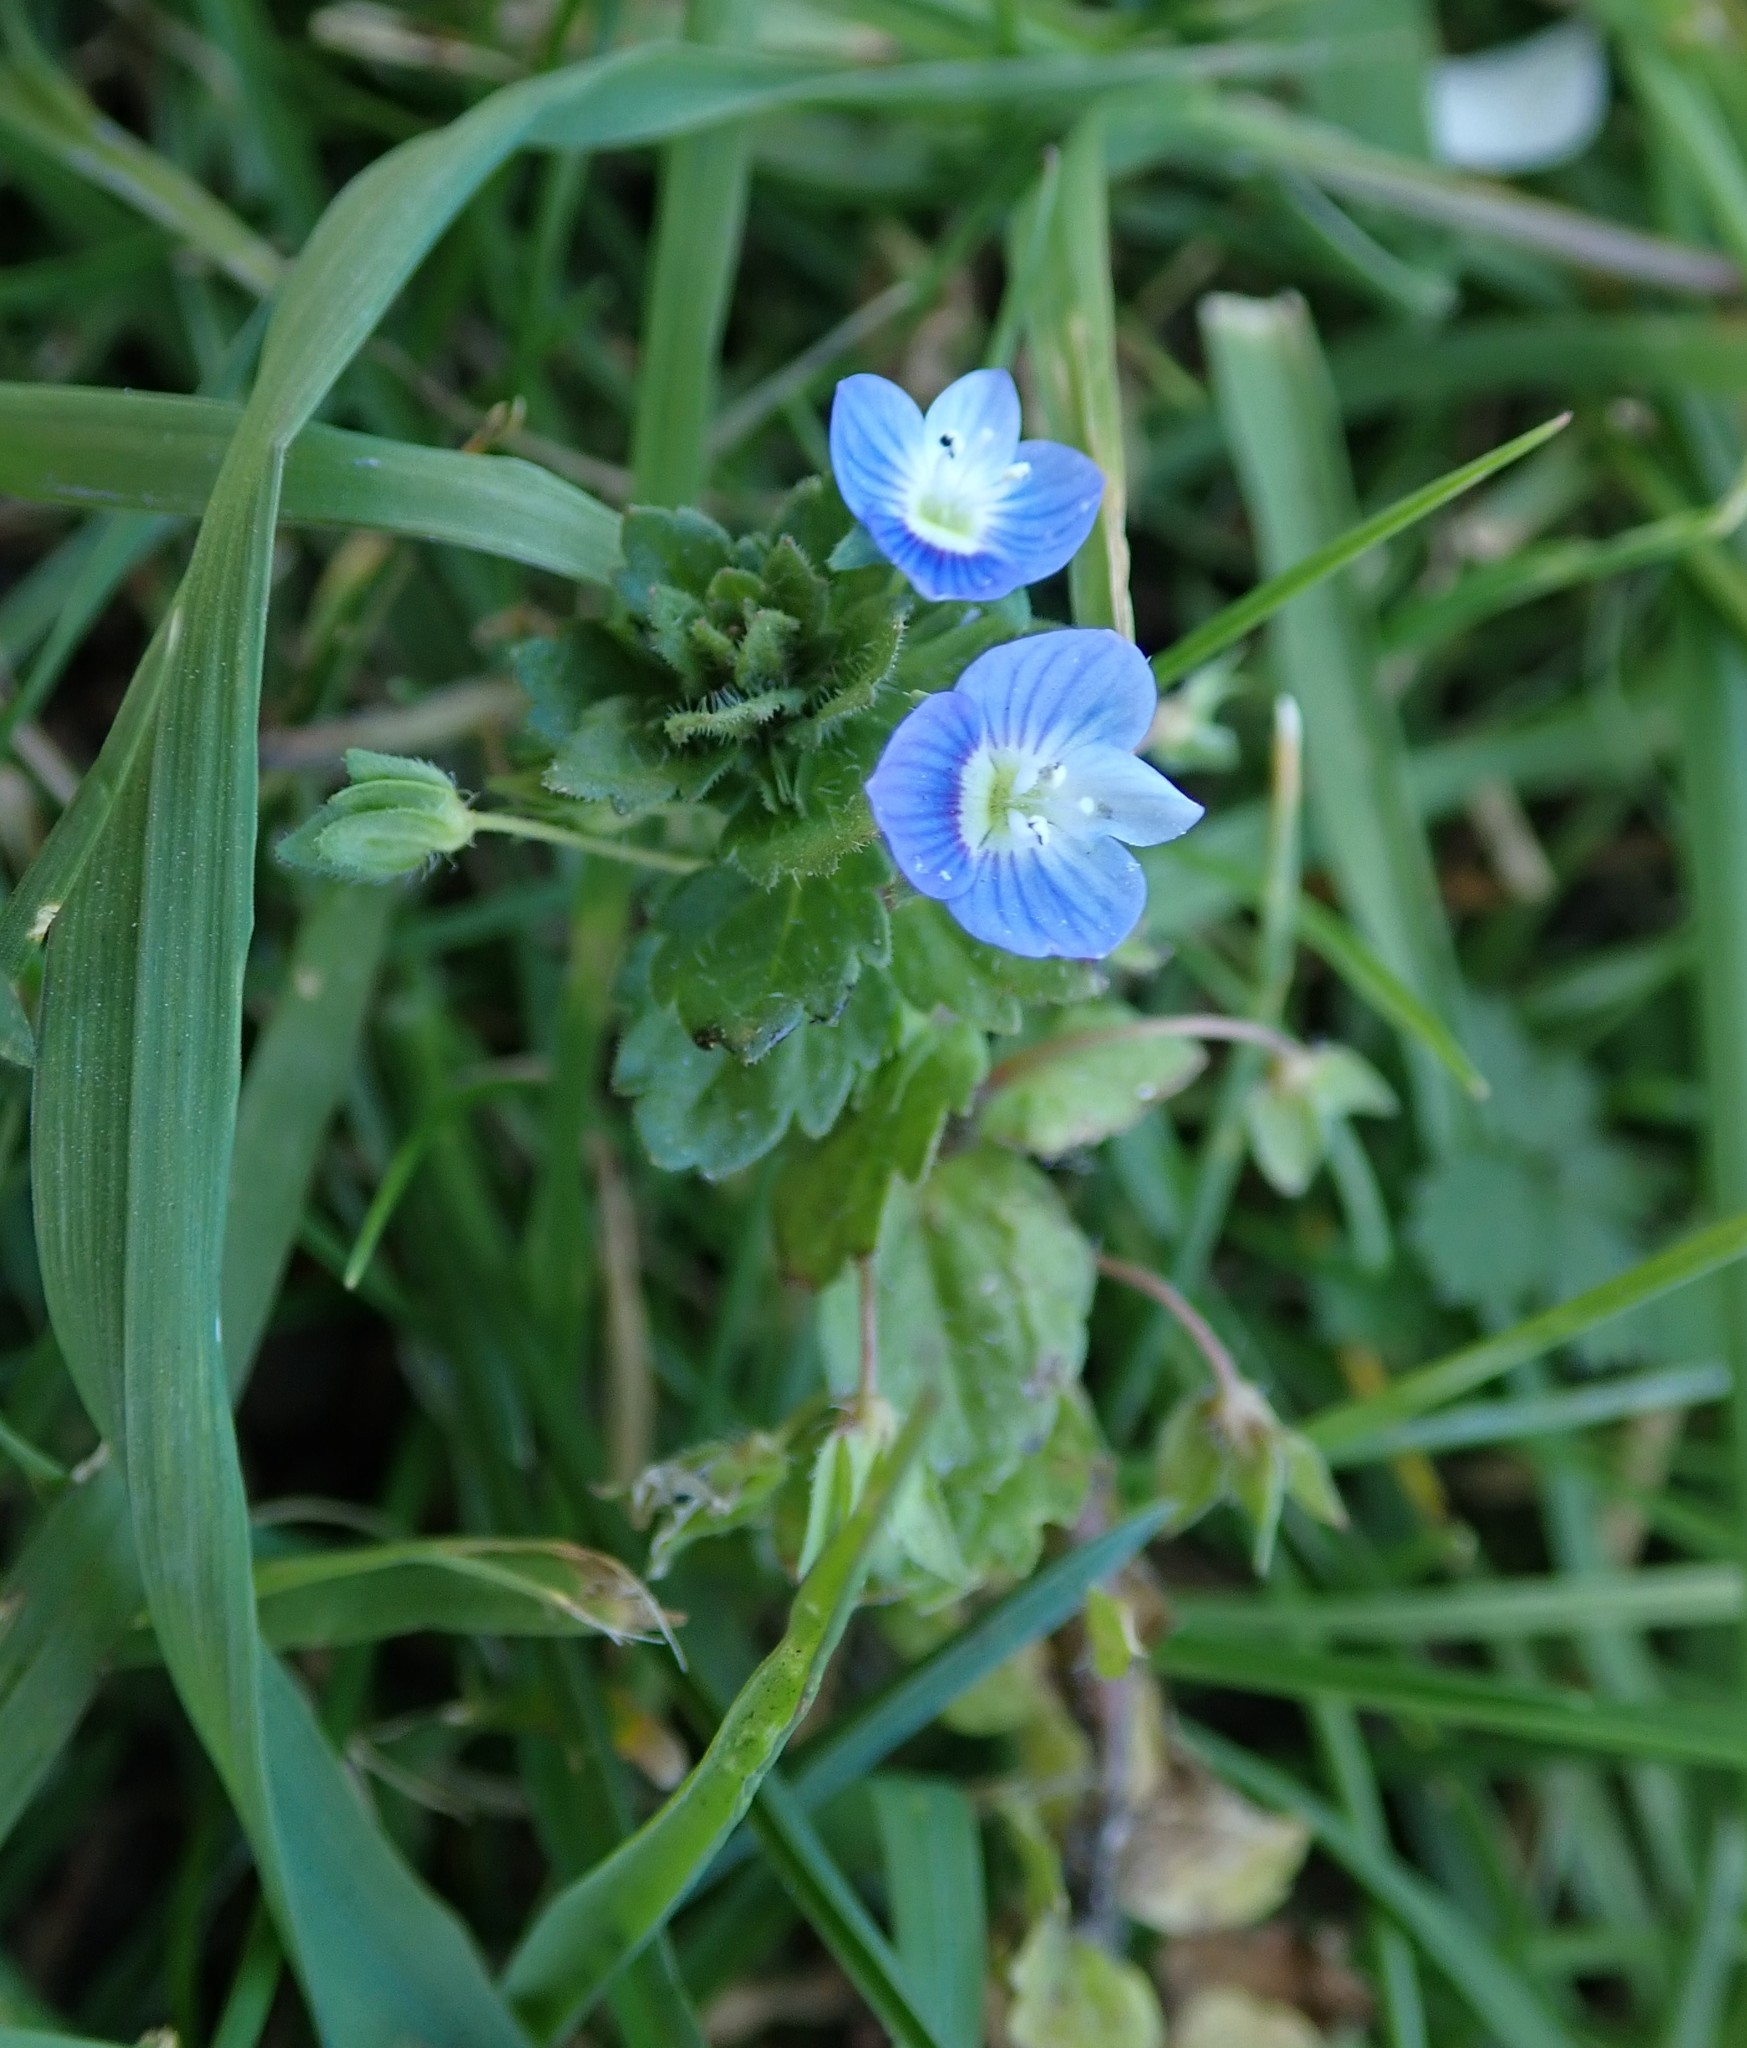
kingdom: Plantae
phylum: Tracheophyta
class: Magnoliopsida
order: Lamiales
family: Plantaginaceae
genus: Veronica
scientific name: Veronica persica
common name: Common field-speedwell
